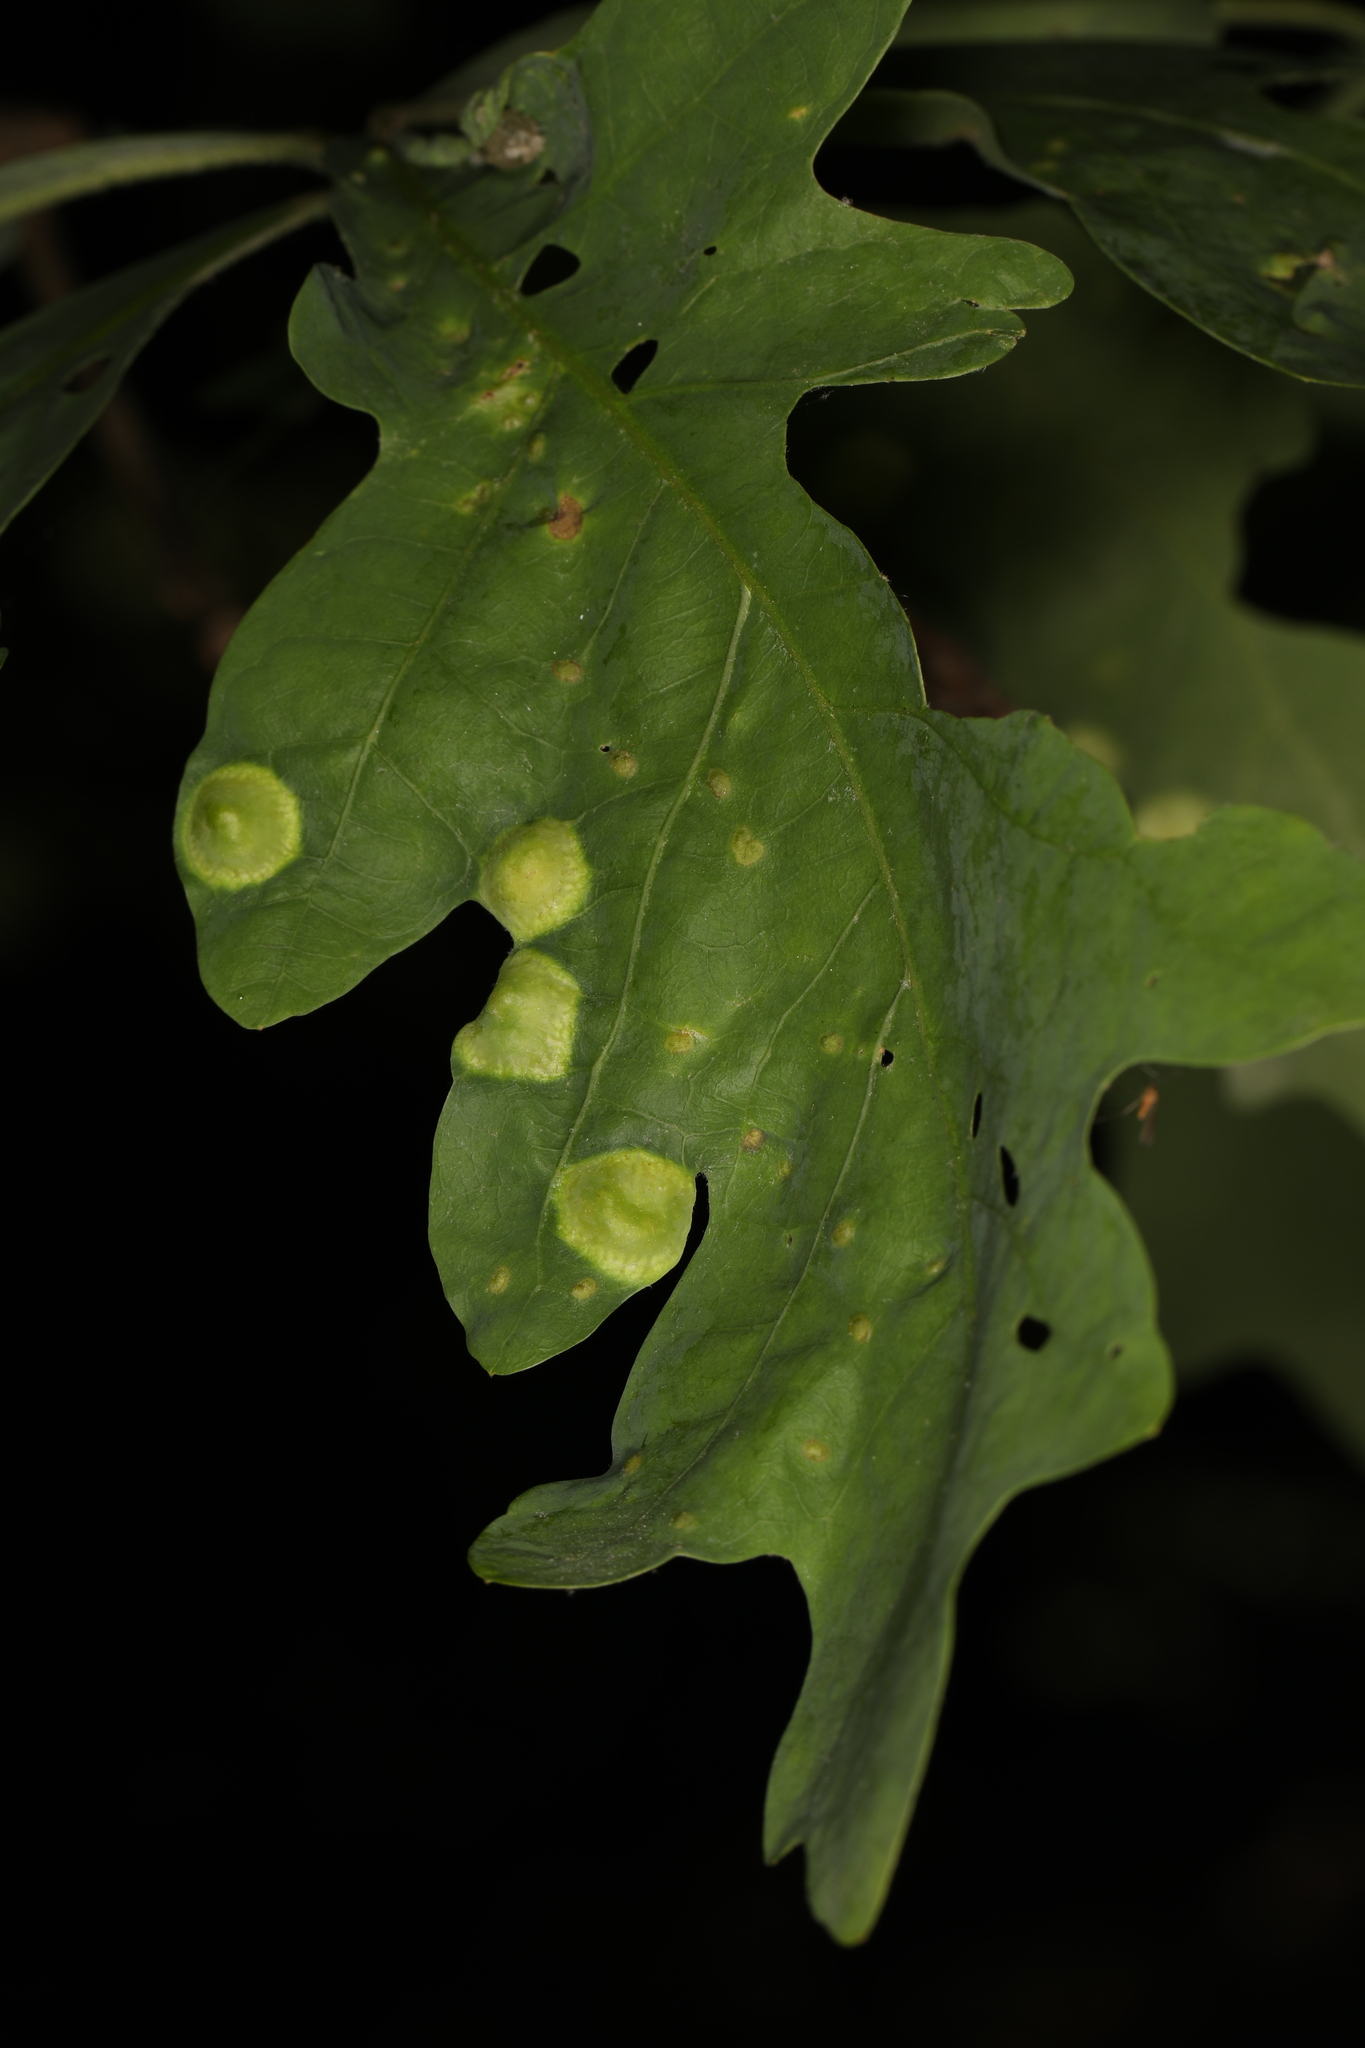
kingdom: Animalia
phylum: Arthropoda
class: Insecta
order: Hymenoptera
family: Cynipidae
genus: Callirhytis
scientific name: Callirhytis
